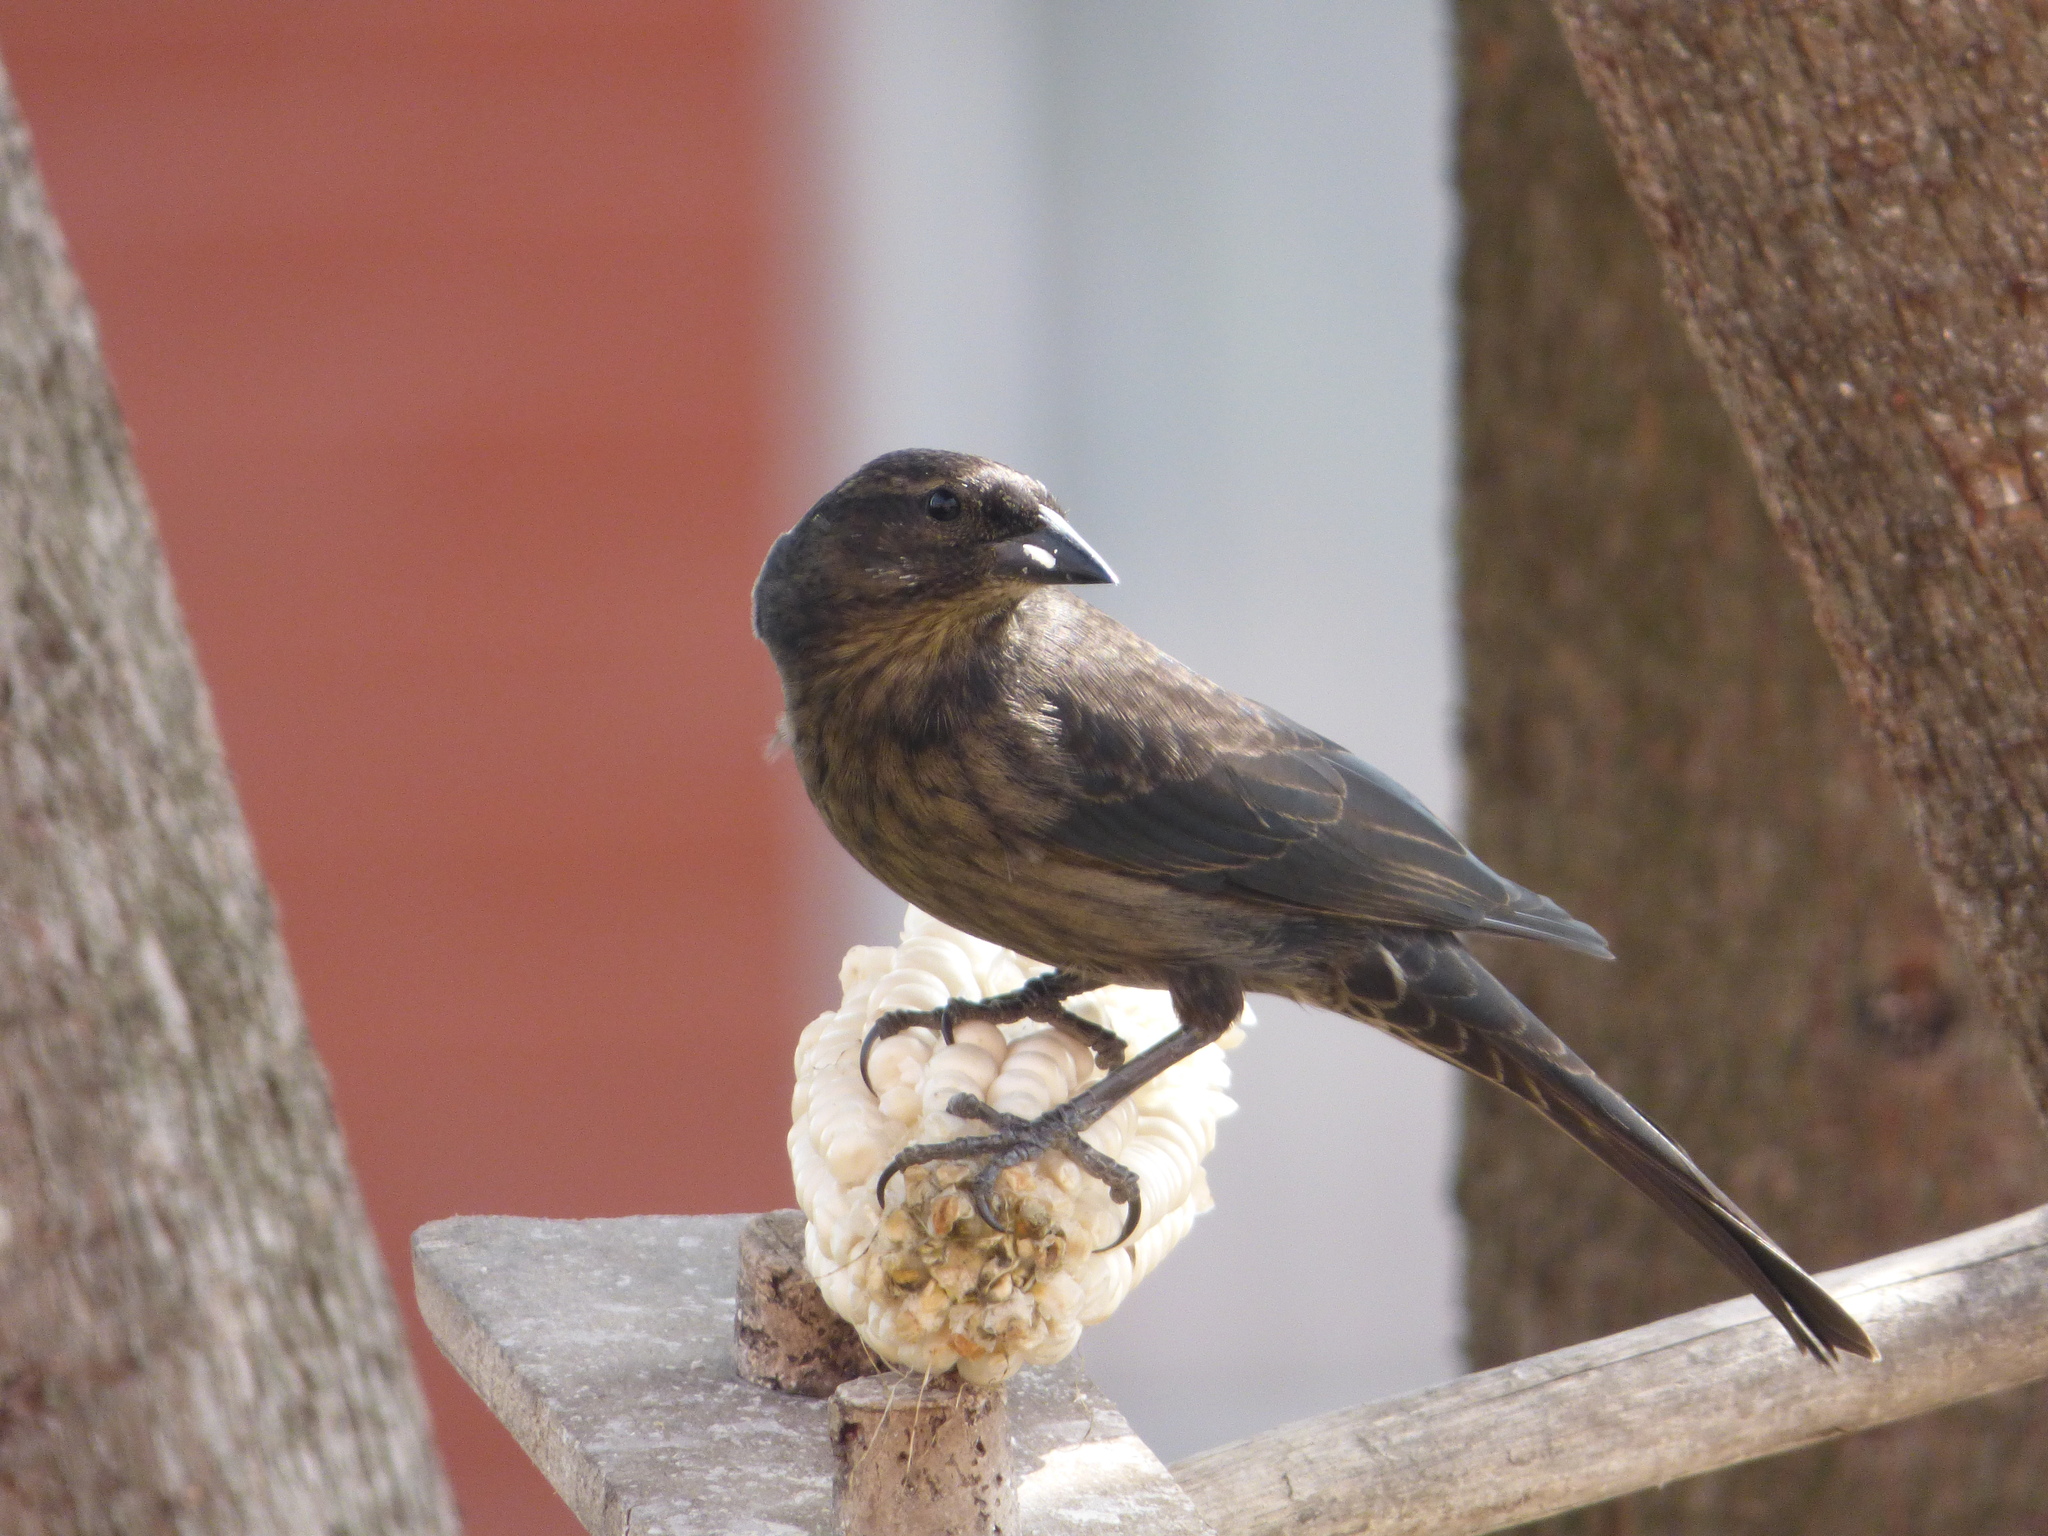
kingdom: Animalia
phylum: Chordata
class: Aves
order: Passeriformes
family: Icteridae
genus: Molothrus
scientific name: Molothrus bonariensis
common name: Shiny cowbird
